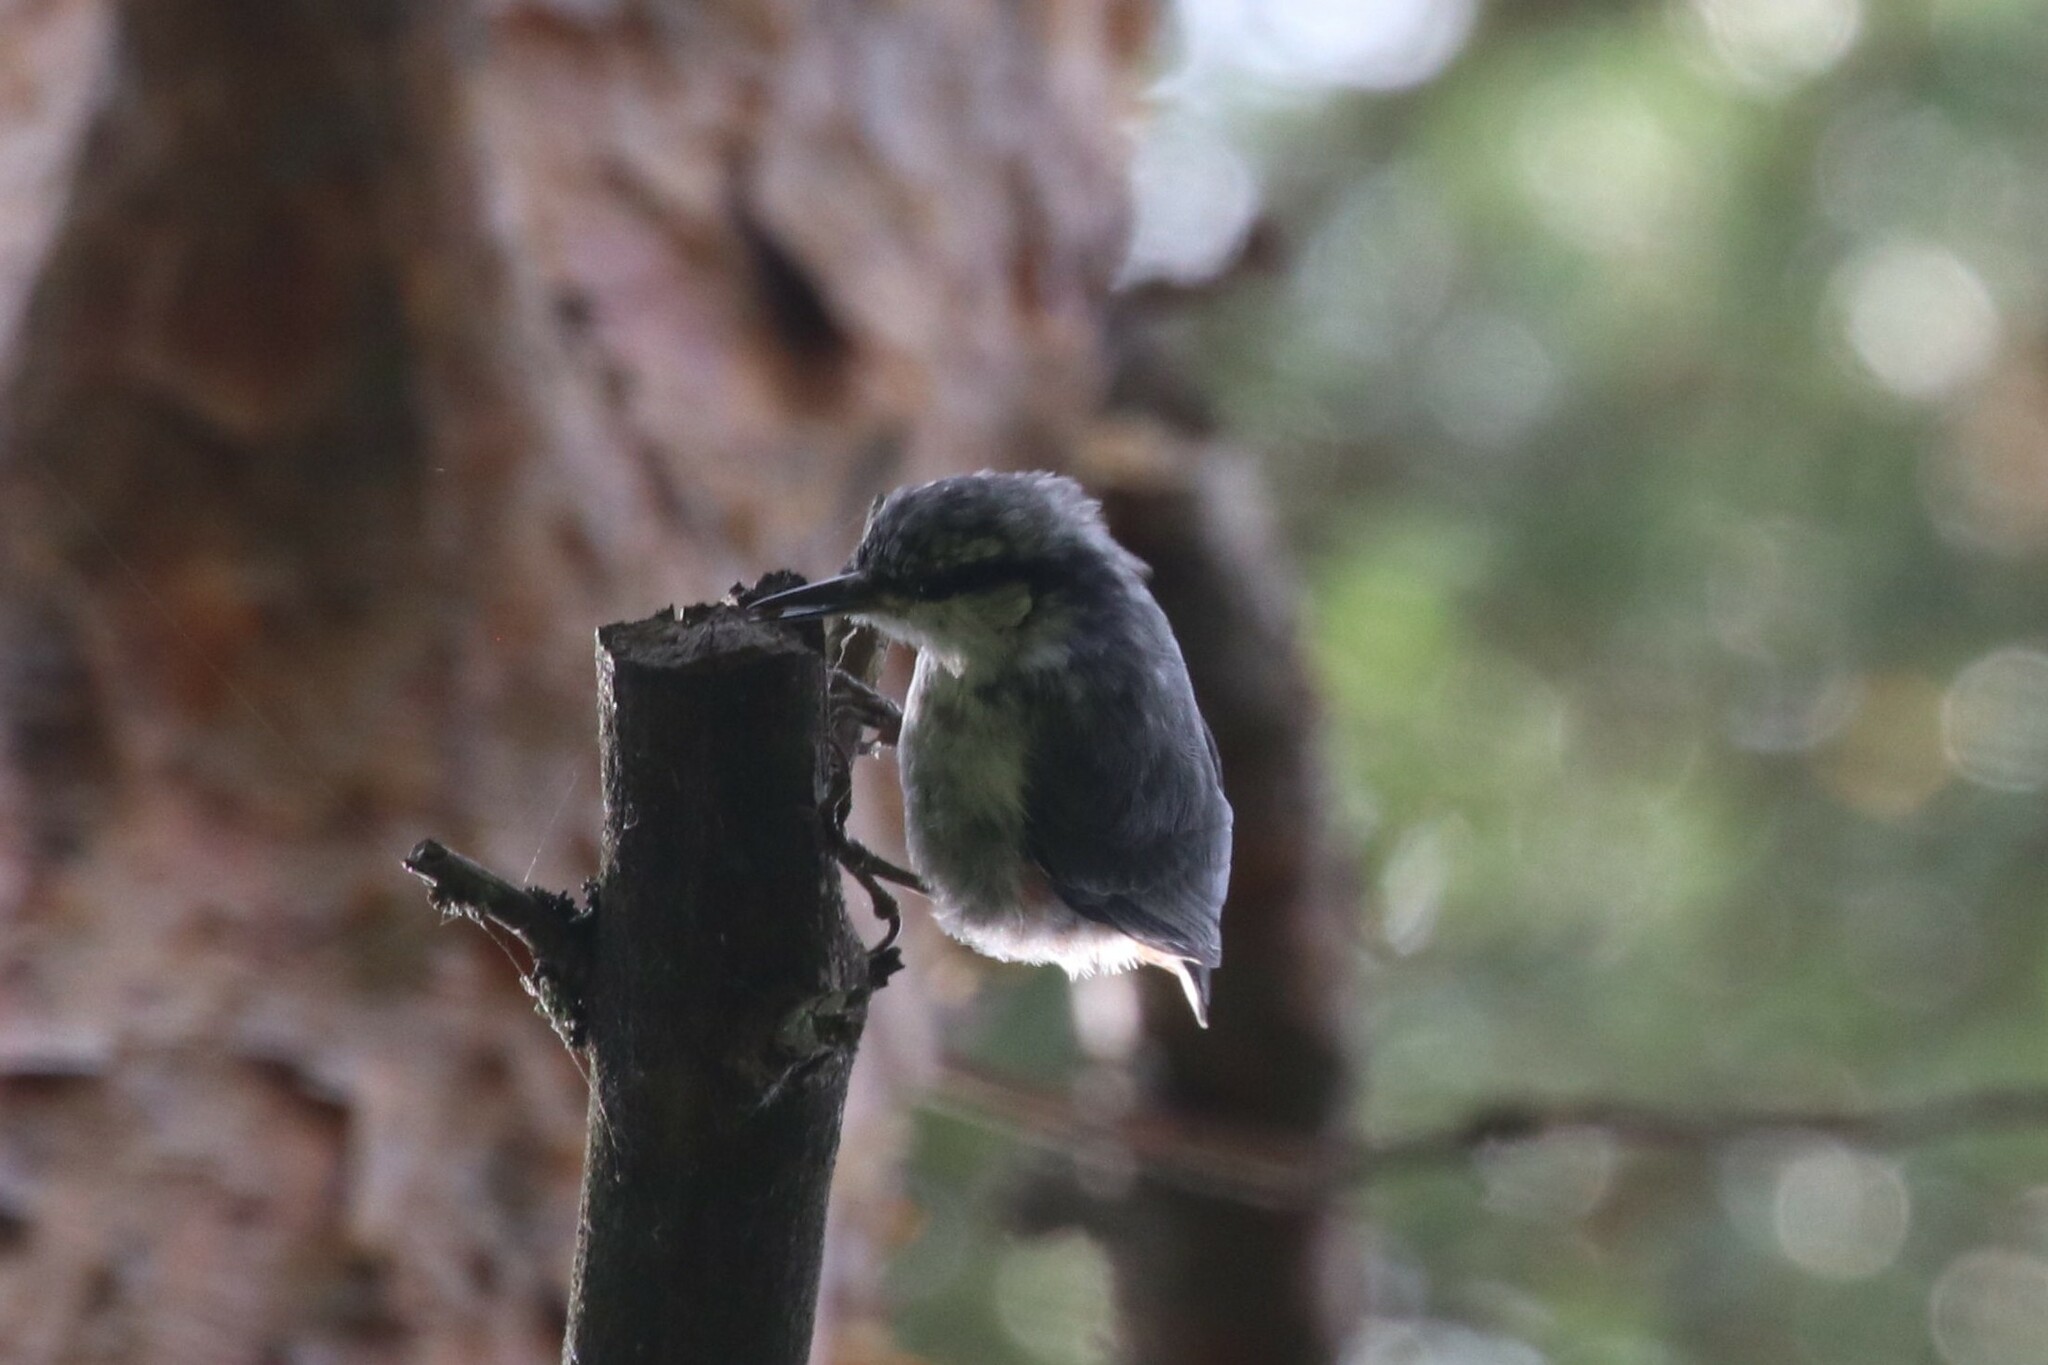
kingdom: Animalia
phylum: Chordata
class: Aves
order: Passeriformes
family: Sittidae
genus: Sitta
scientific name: Sitta europaea
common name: Eurasian nuthatch
